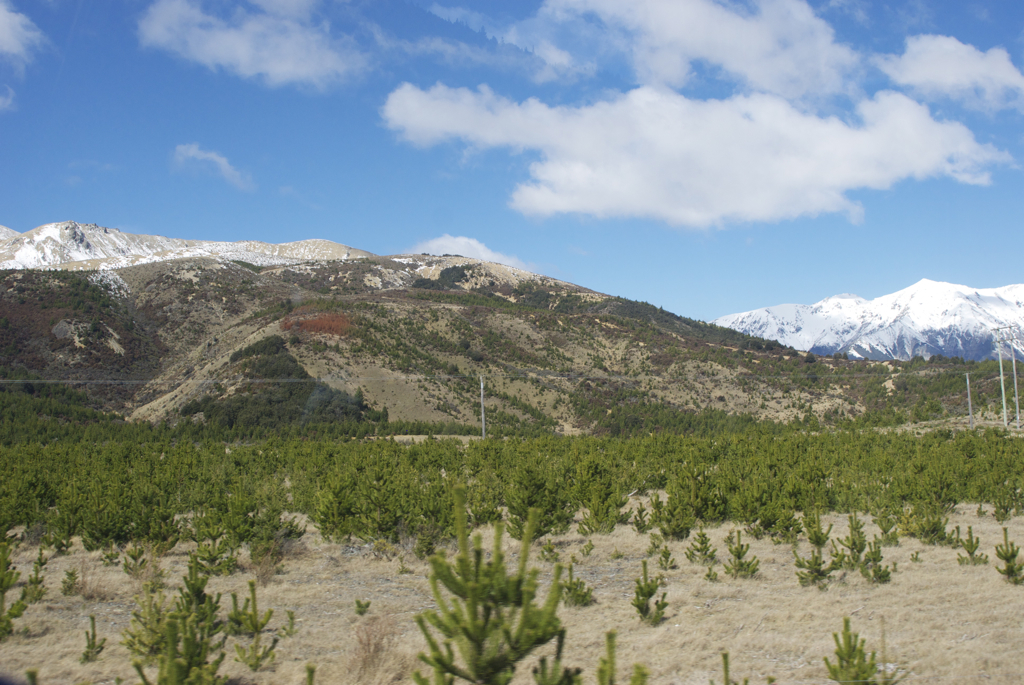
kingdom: Plantae
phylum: Tracheophyta
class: Pinopsida
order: Pinales
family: Pinaceae
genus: Pinus
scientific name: Pinus contorta
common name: Lodgepole pine
